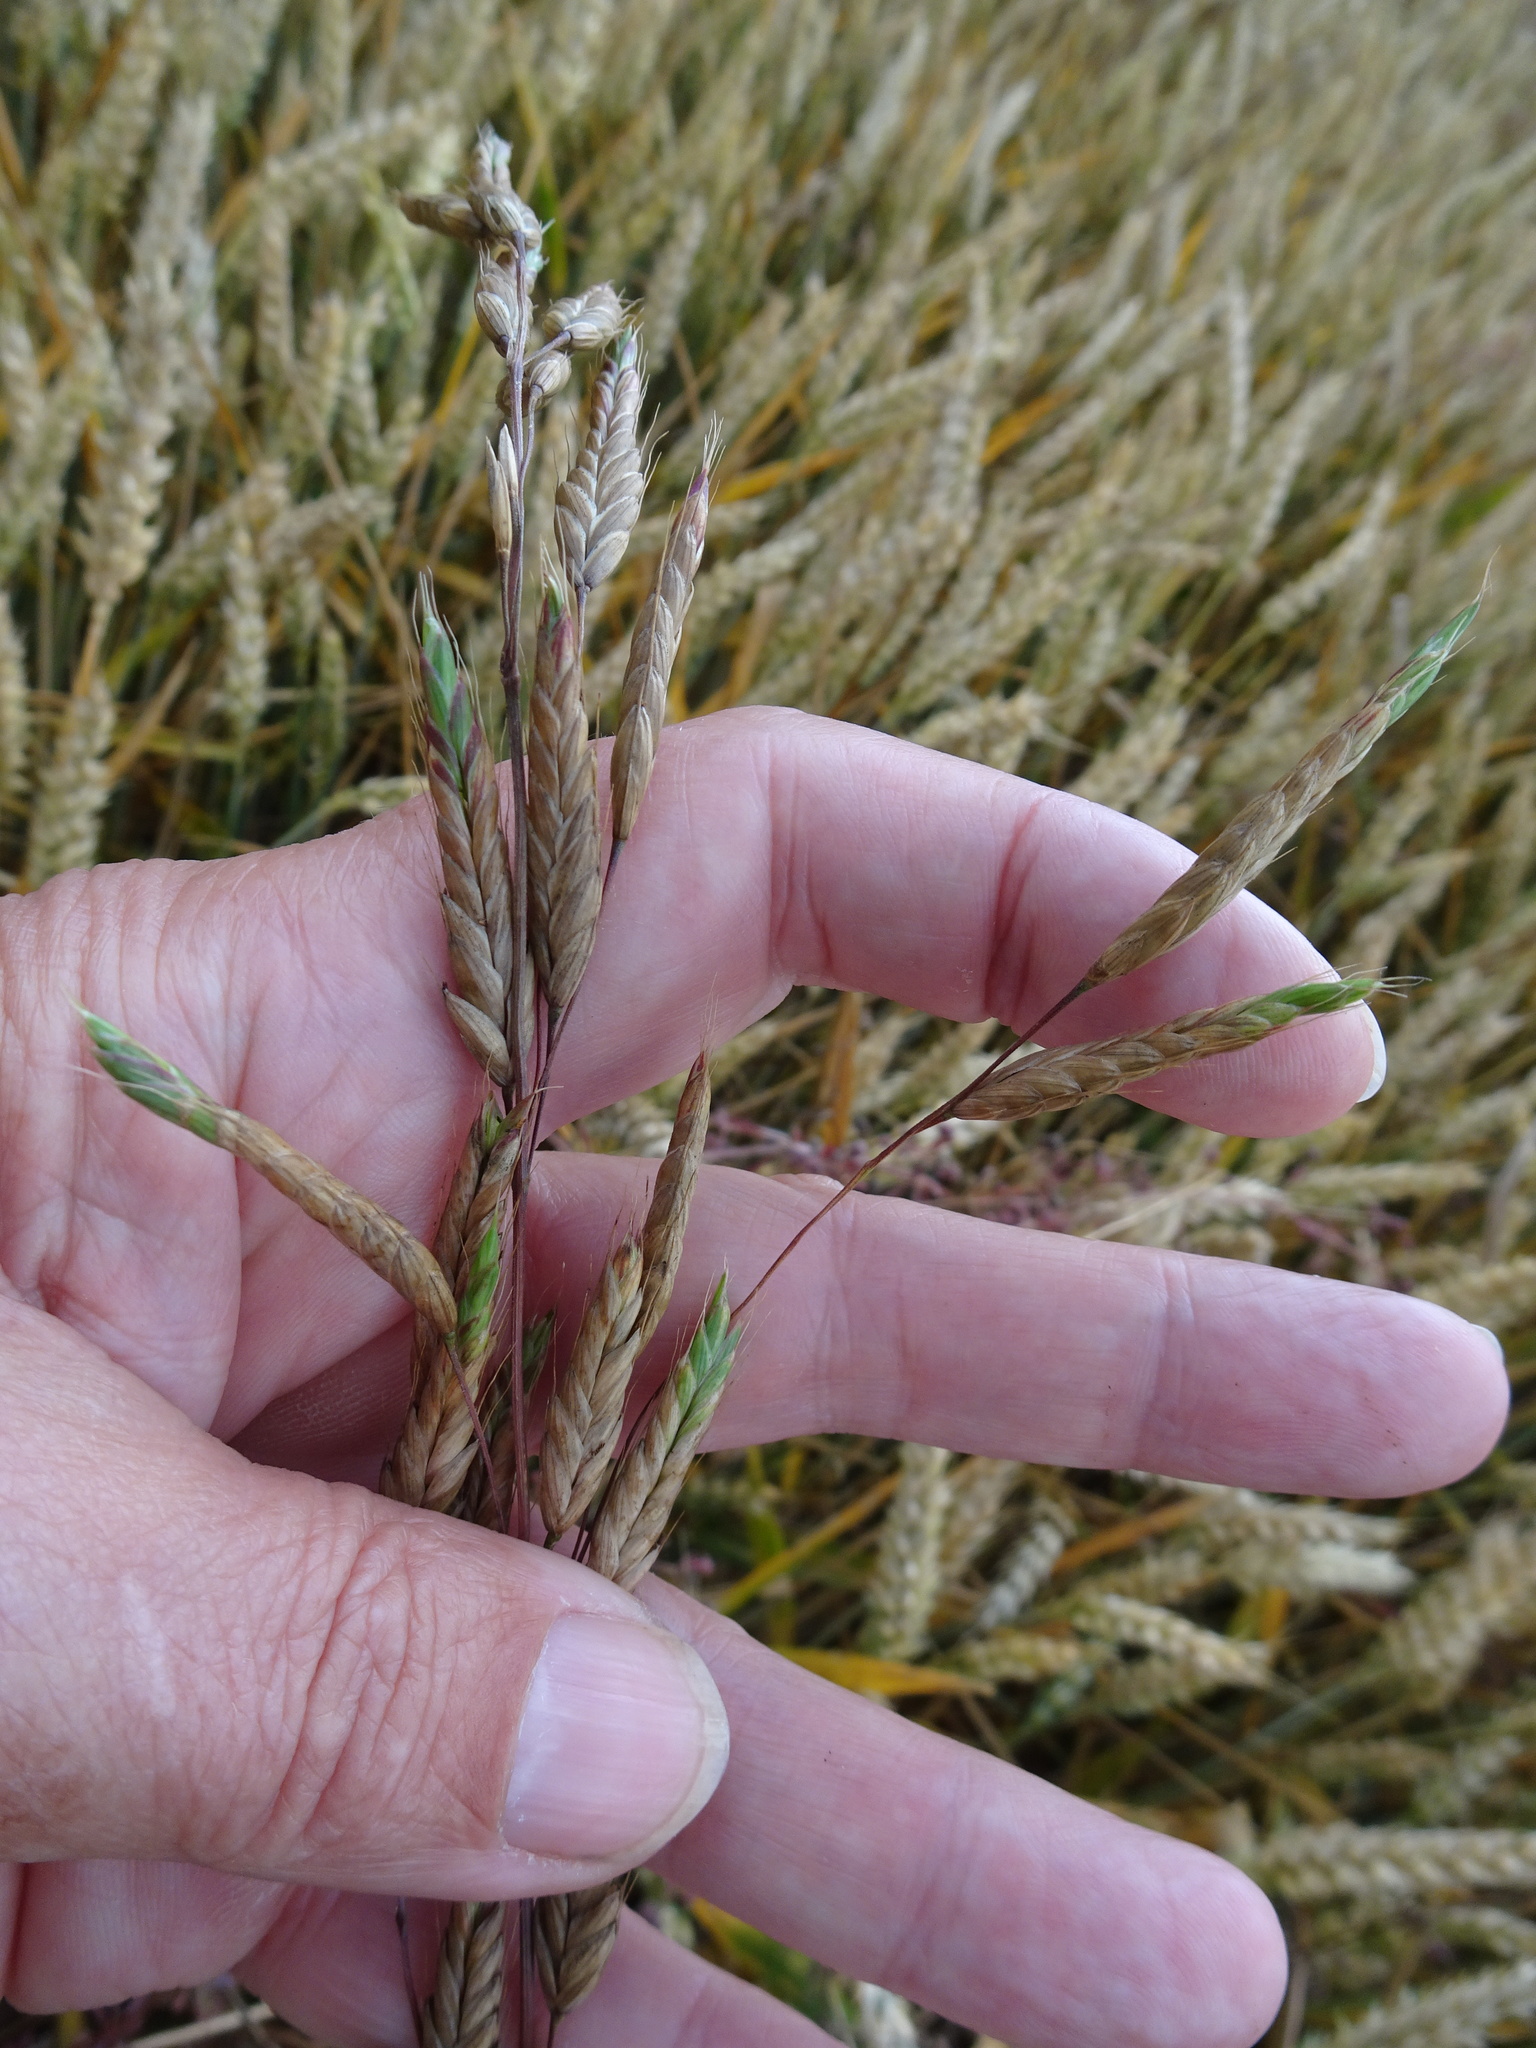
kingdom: Plantae
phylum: Tracheophyta
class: Liliopsida
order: Poales
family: Poaceae
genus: Bromus
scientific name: Bromus commutatus
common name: Meadow brome
